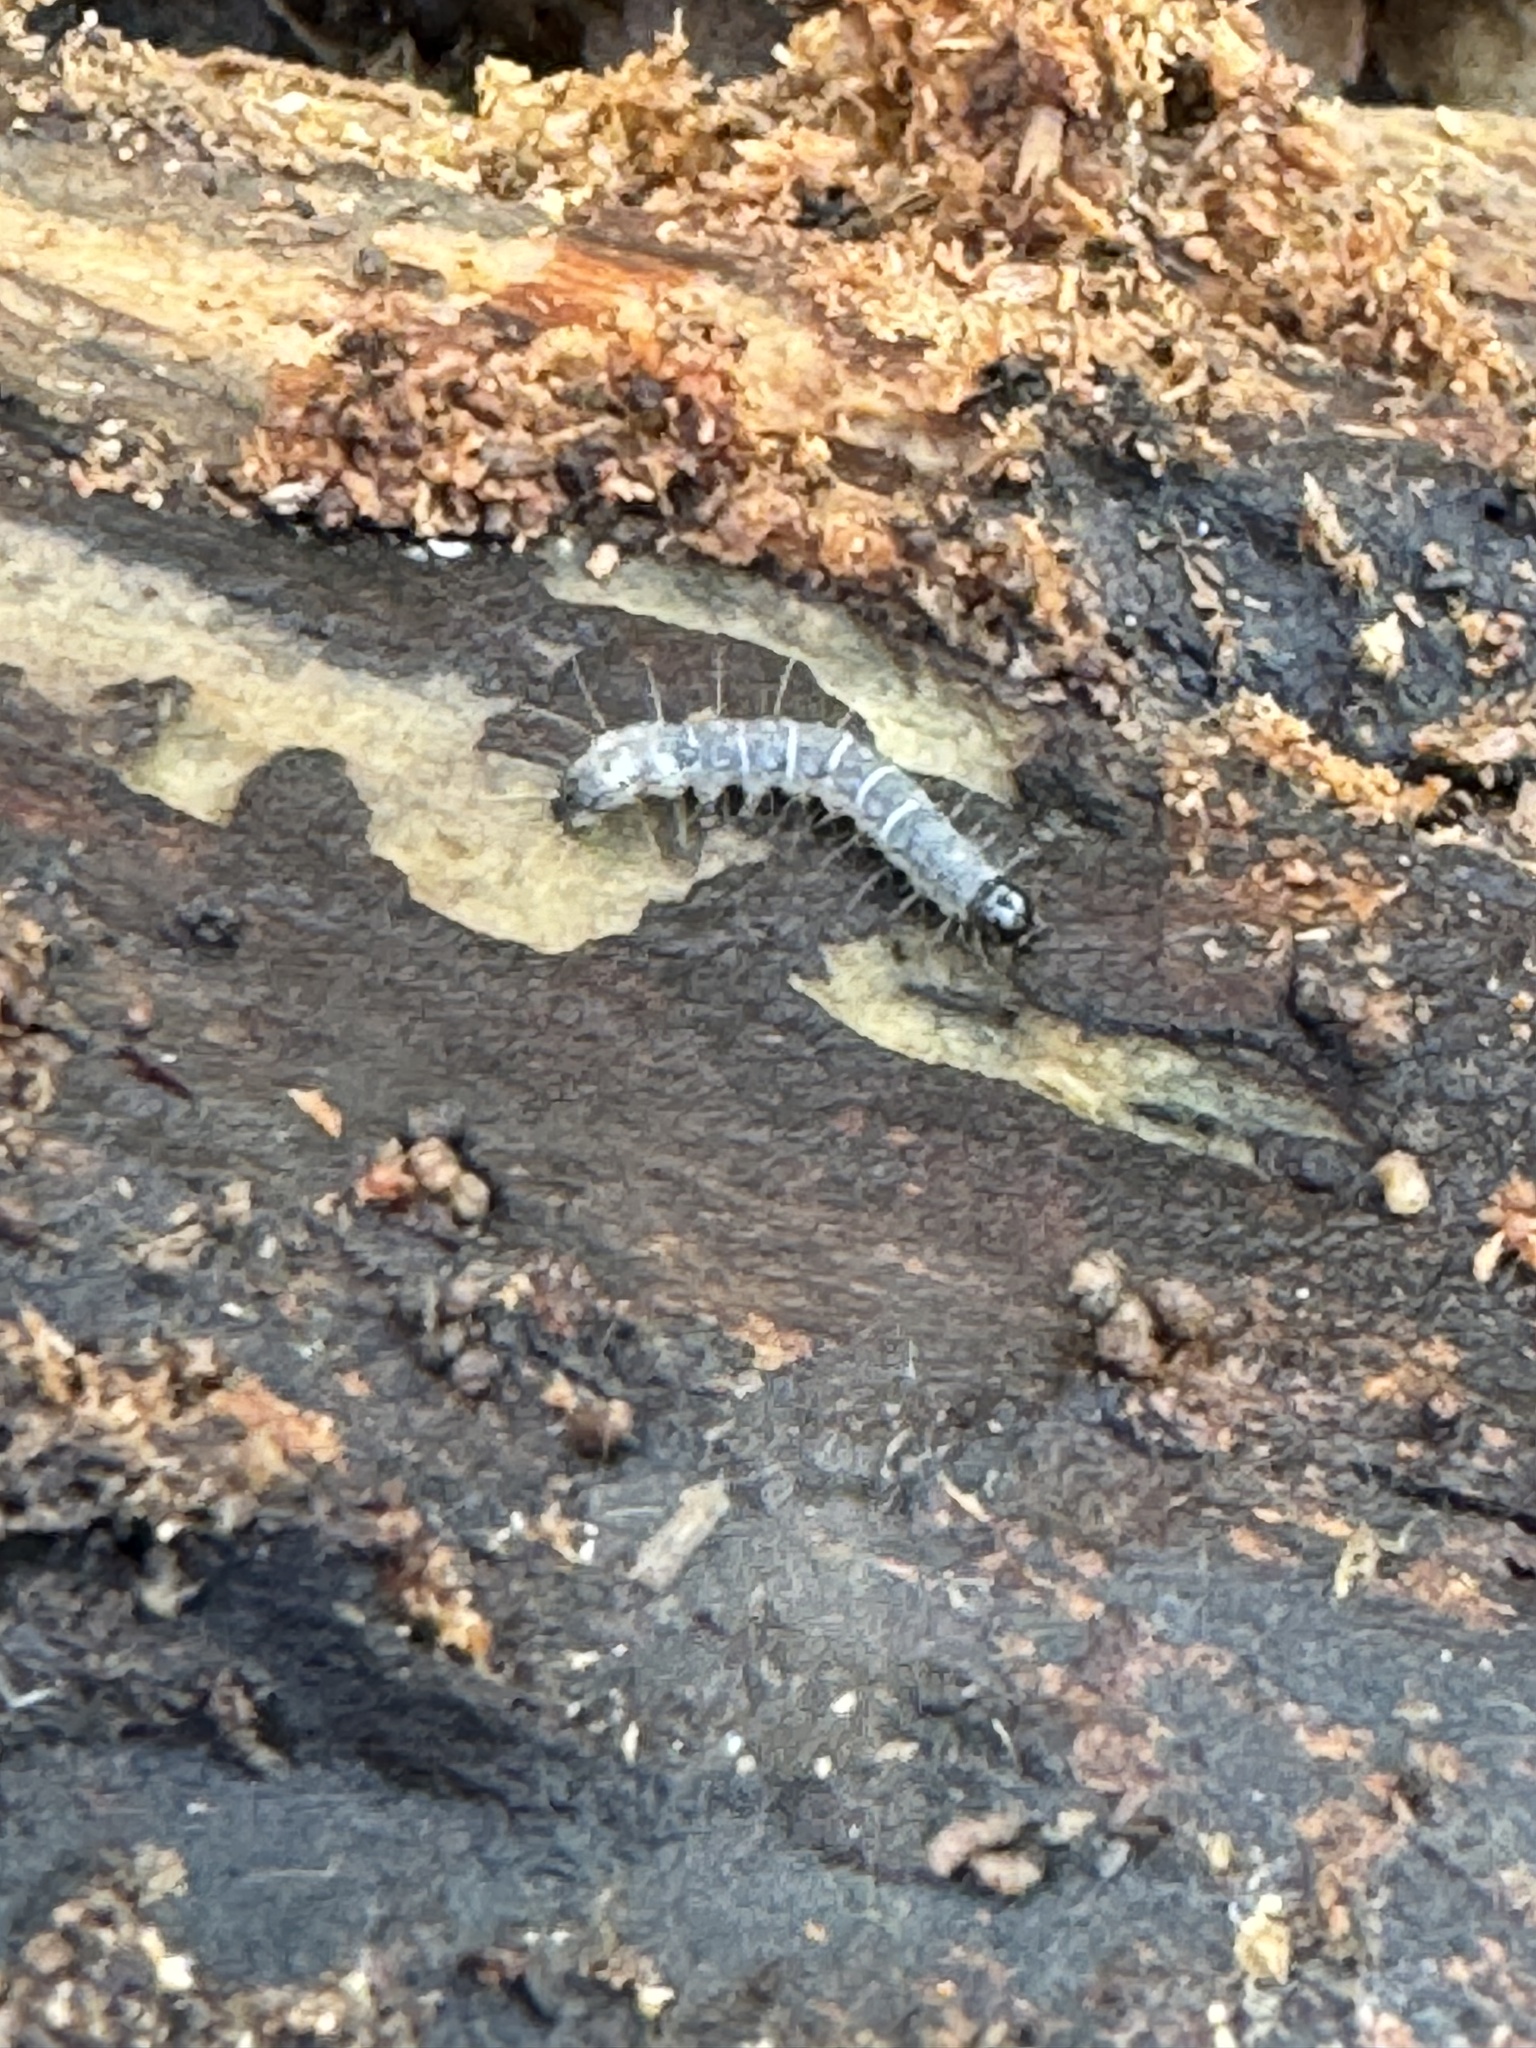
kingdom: Animalia
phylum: Arthropoda
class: Insecta
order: Lepidoptera
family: Erebidae
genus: Scolecocampa
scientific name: Scolecocampa liburna
